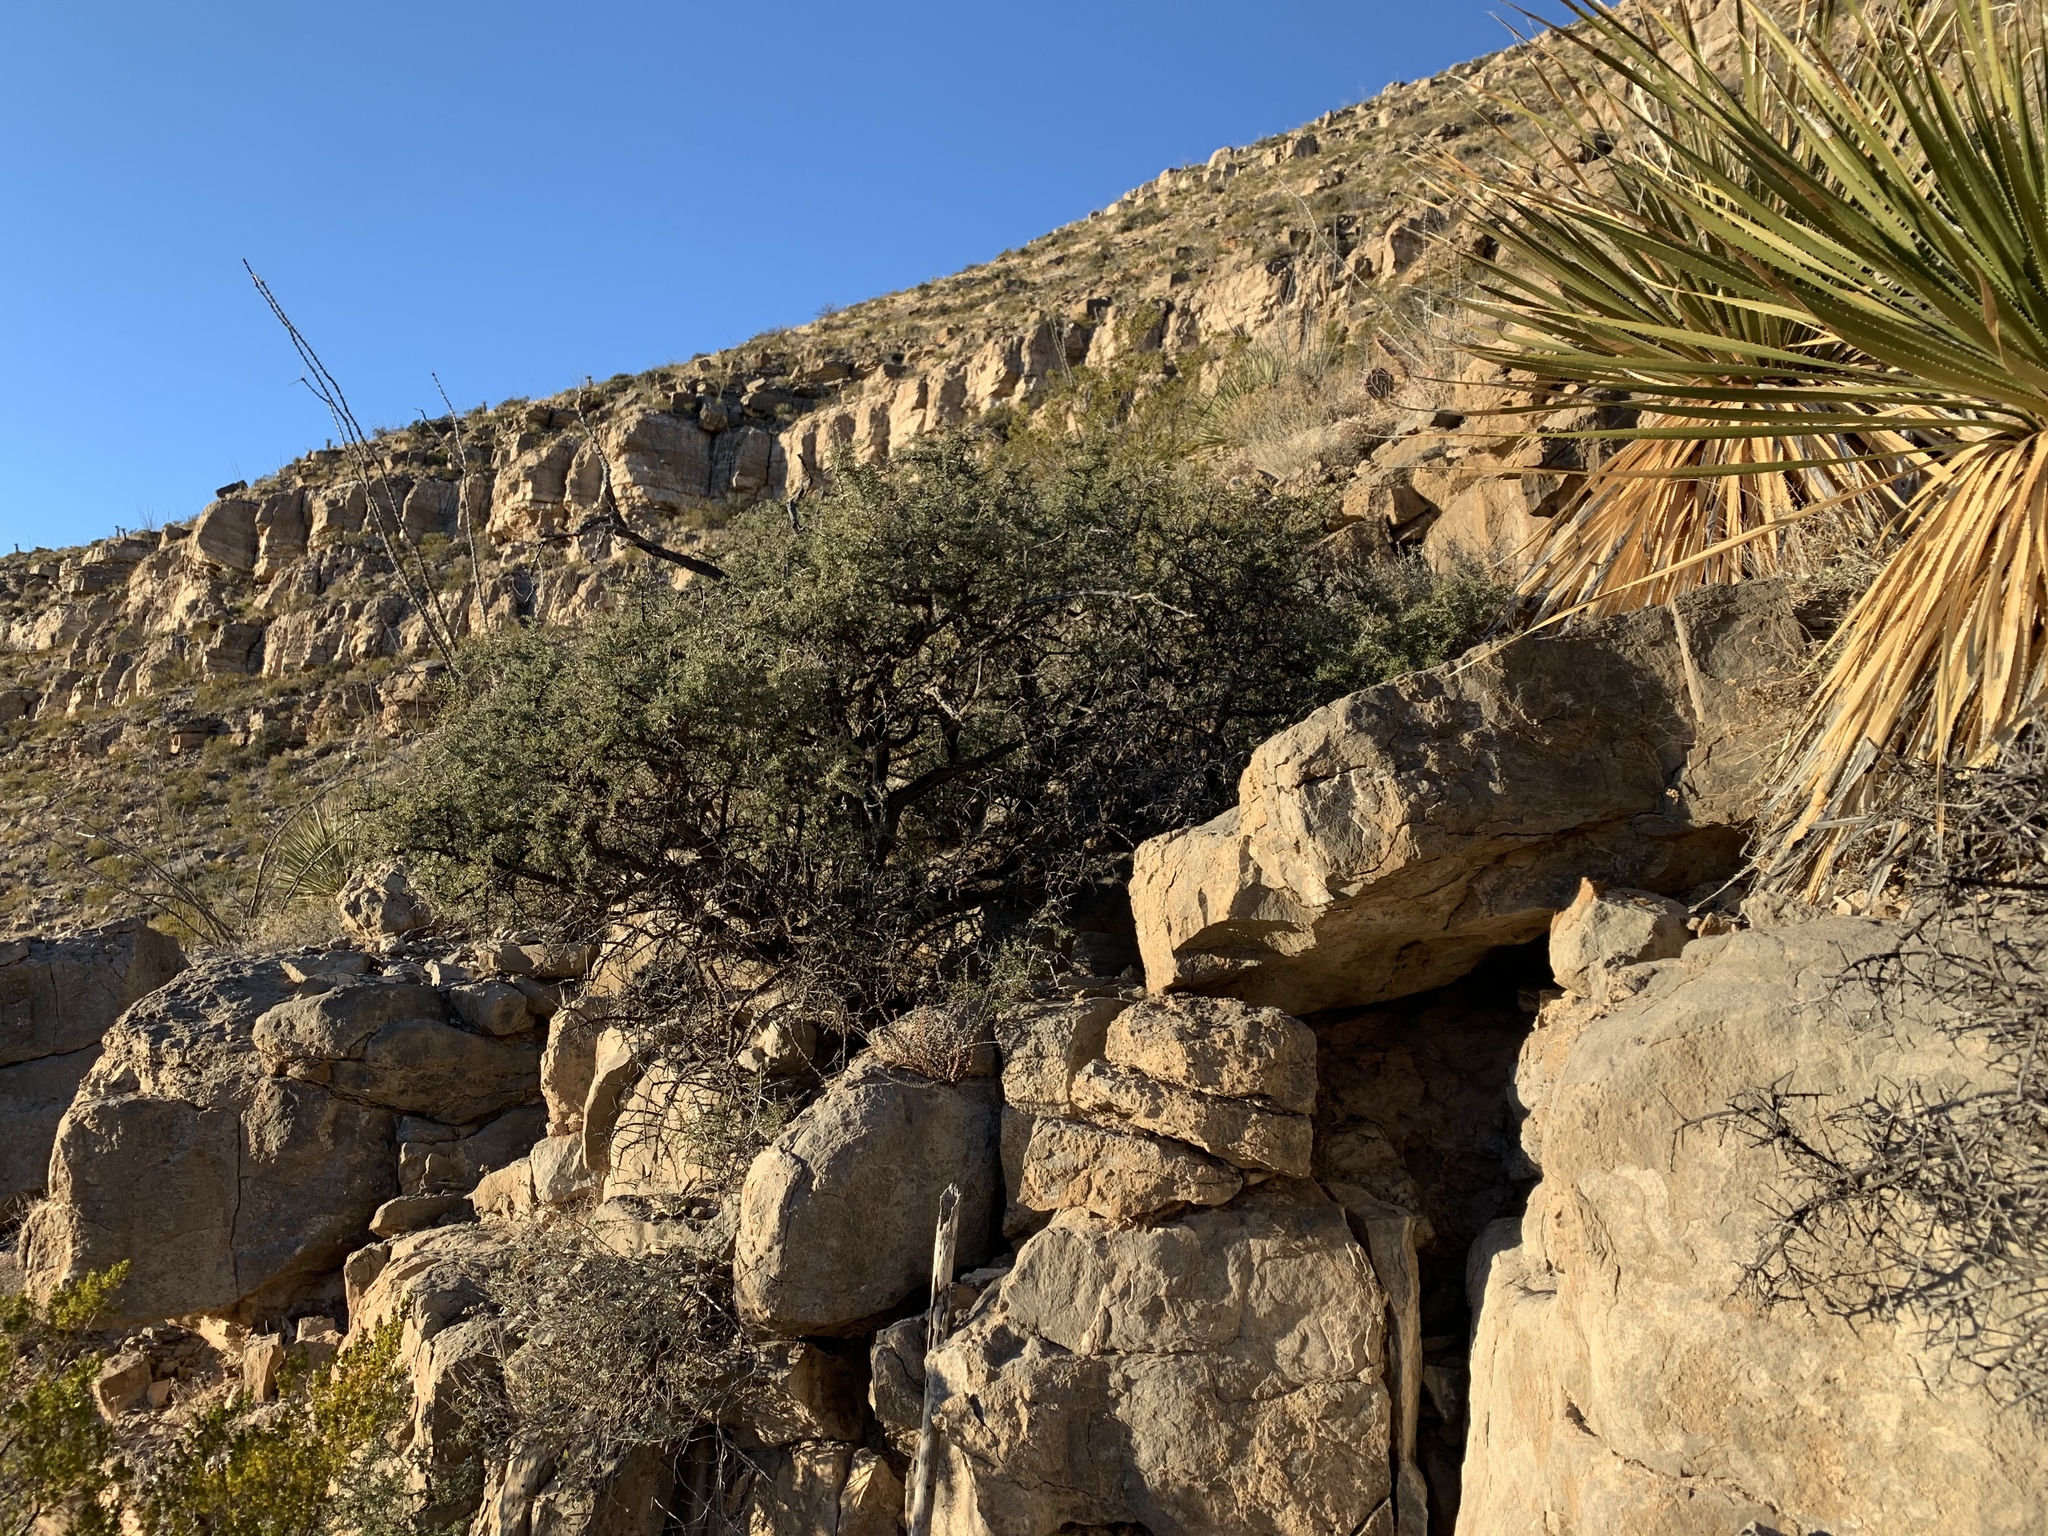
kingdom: Plantae
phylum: Tracheophyta
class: Magnoliopsida
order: Rosales
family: Rhamnaceae
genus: Condalia
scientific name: Condalia warnockii
